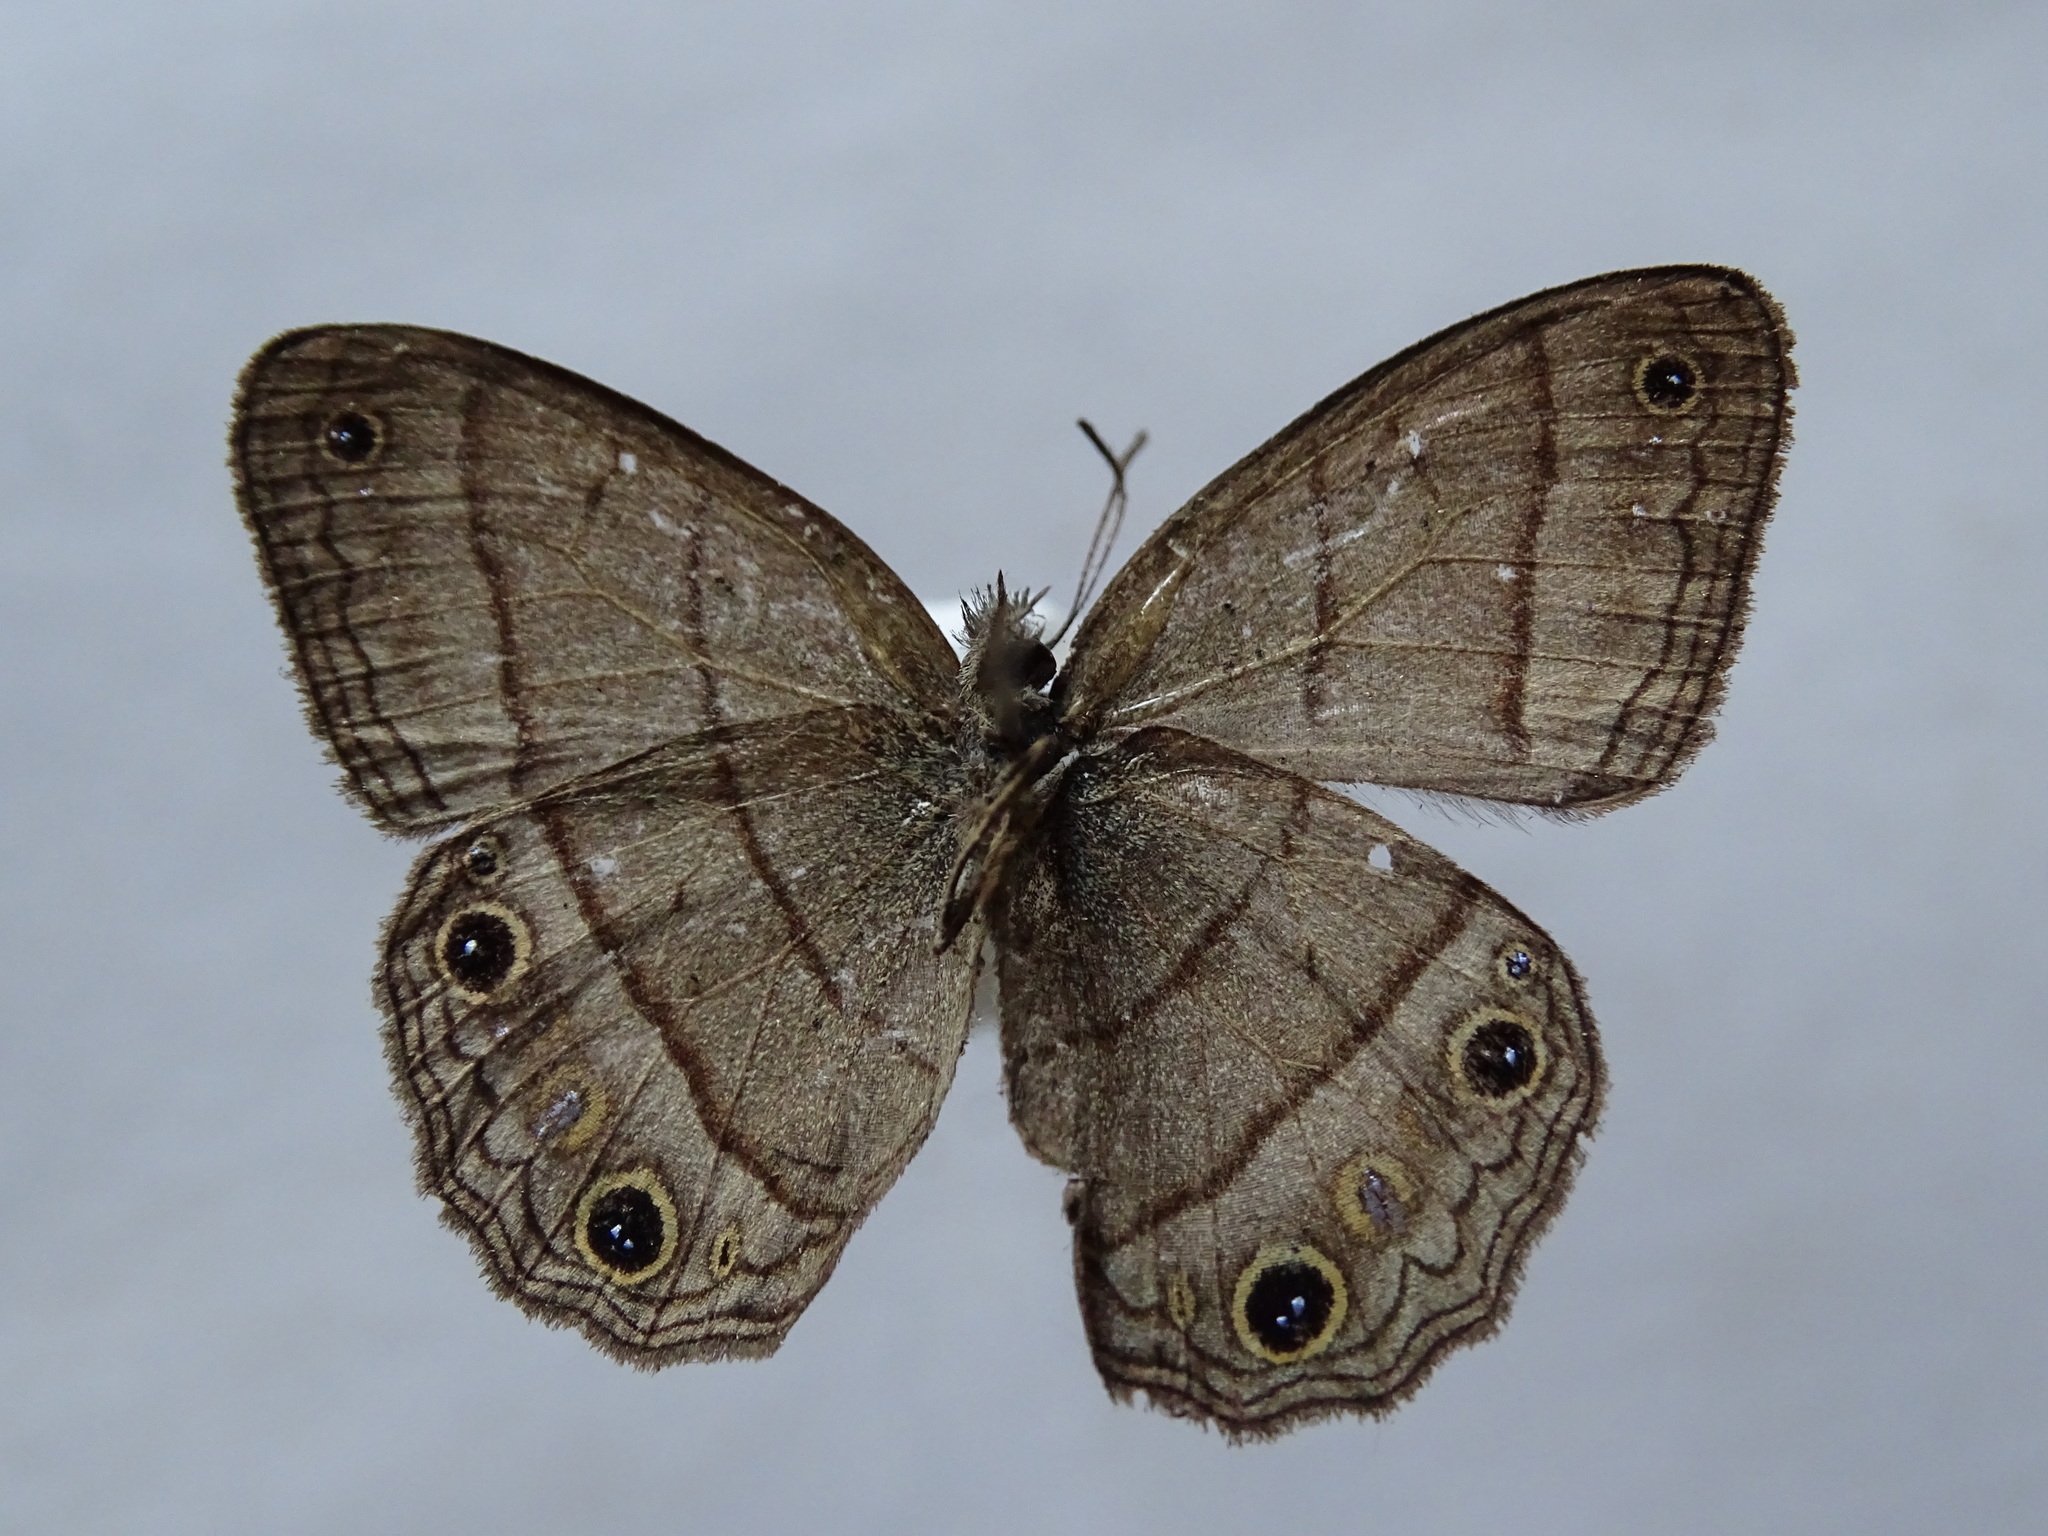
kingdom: Animalia
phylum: Arthropoda
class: Insecta
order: Lepidoptera
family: Nymphalidae
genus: Euptychia
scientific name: Euptychia Cissia pompilia
